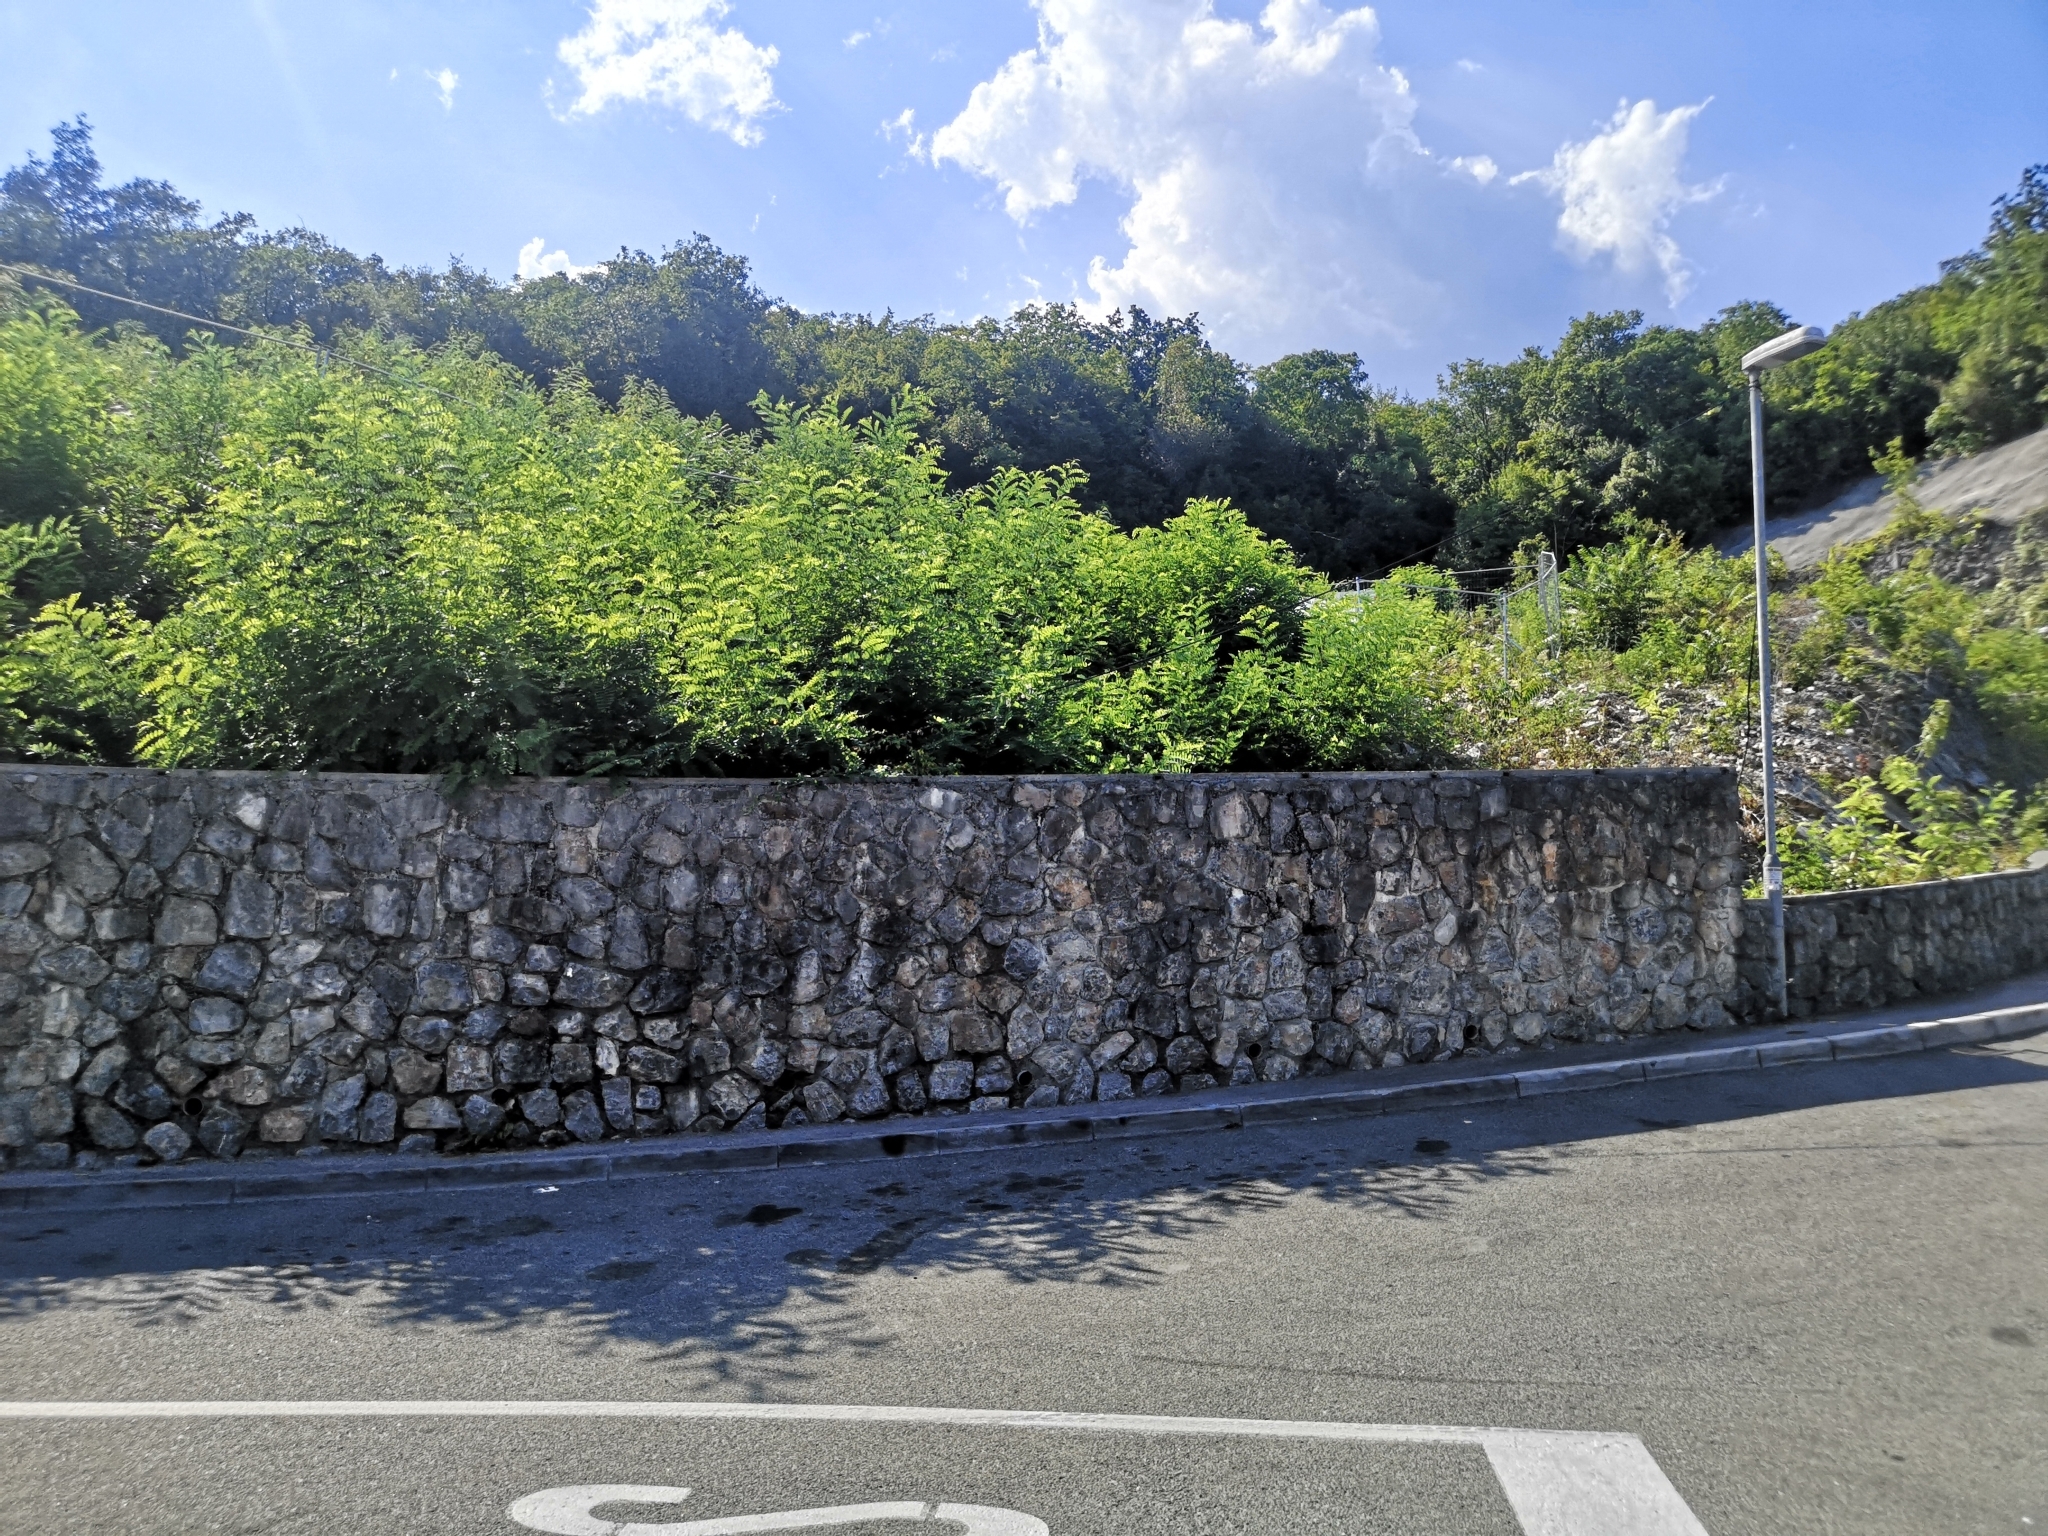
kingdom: Plantae
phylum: Tracheophyta
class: Magnoliopsida
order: Fabales
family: Fabaceae
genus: Robinia
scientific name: Robinia pseudoacacia
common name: Black locust
